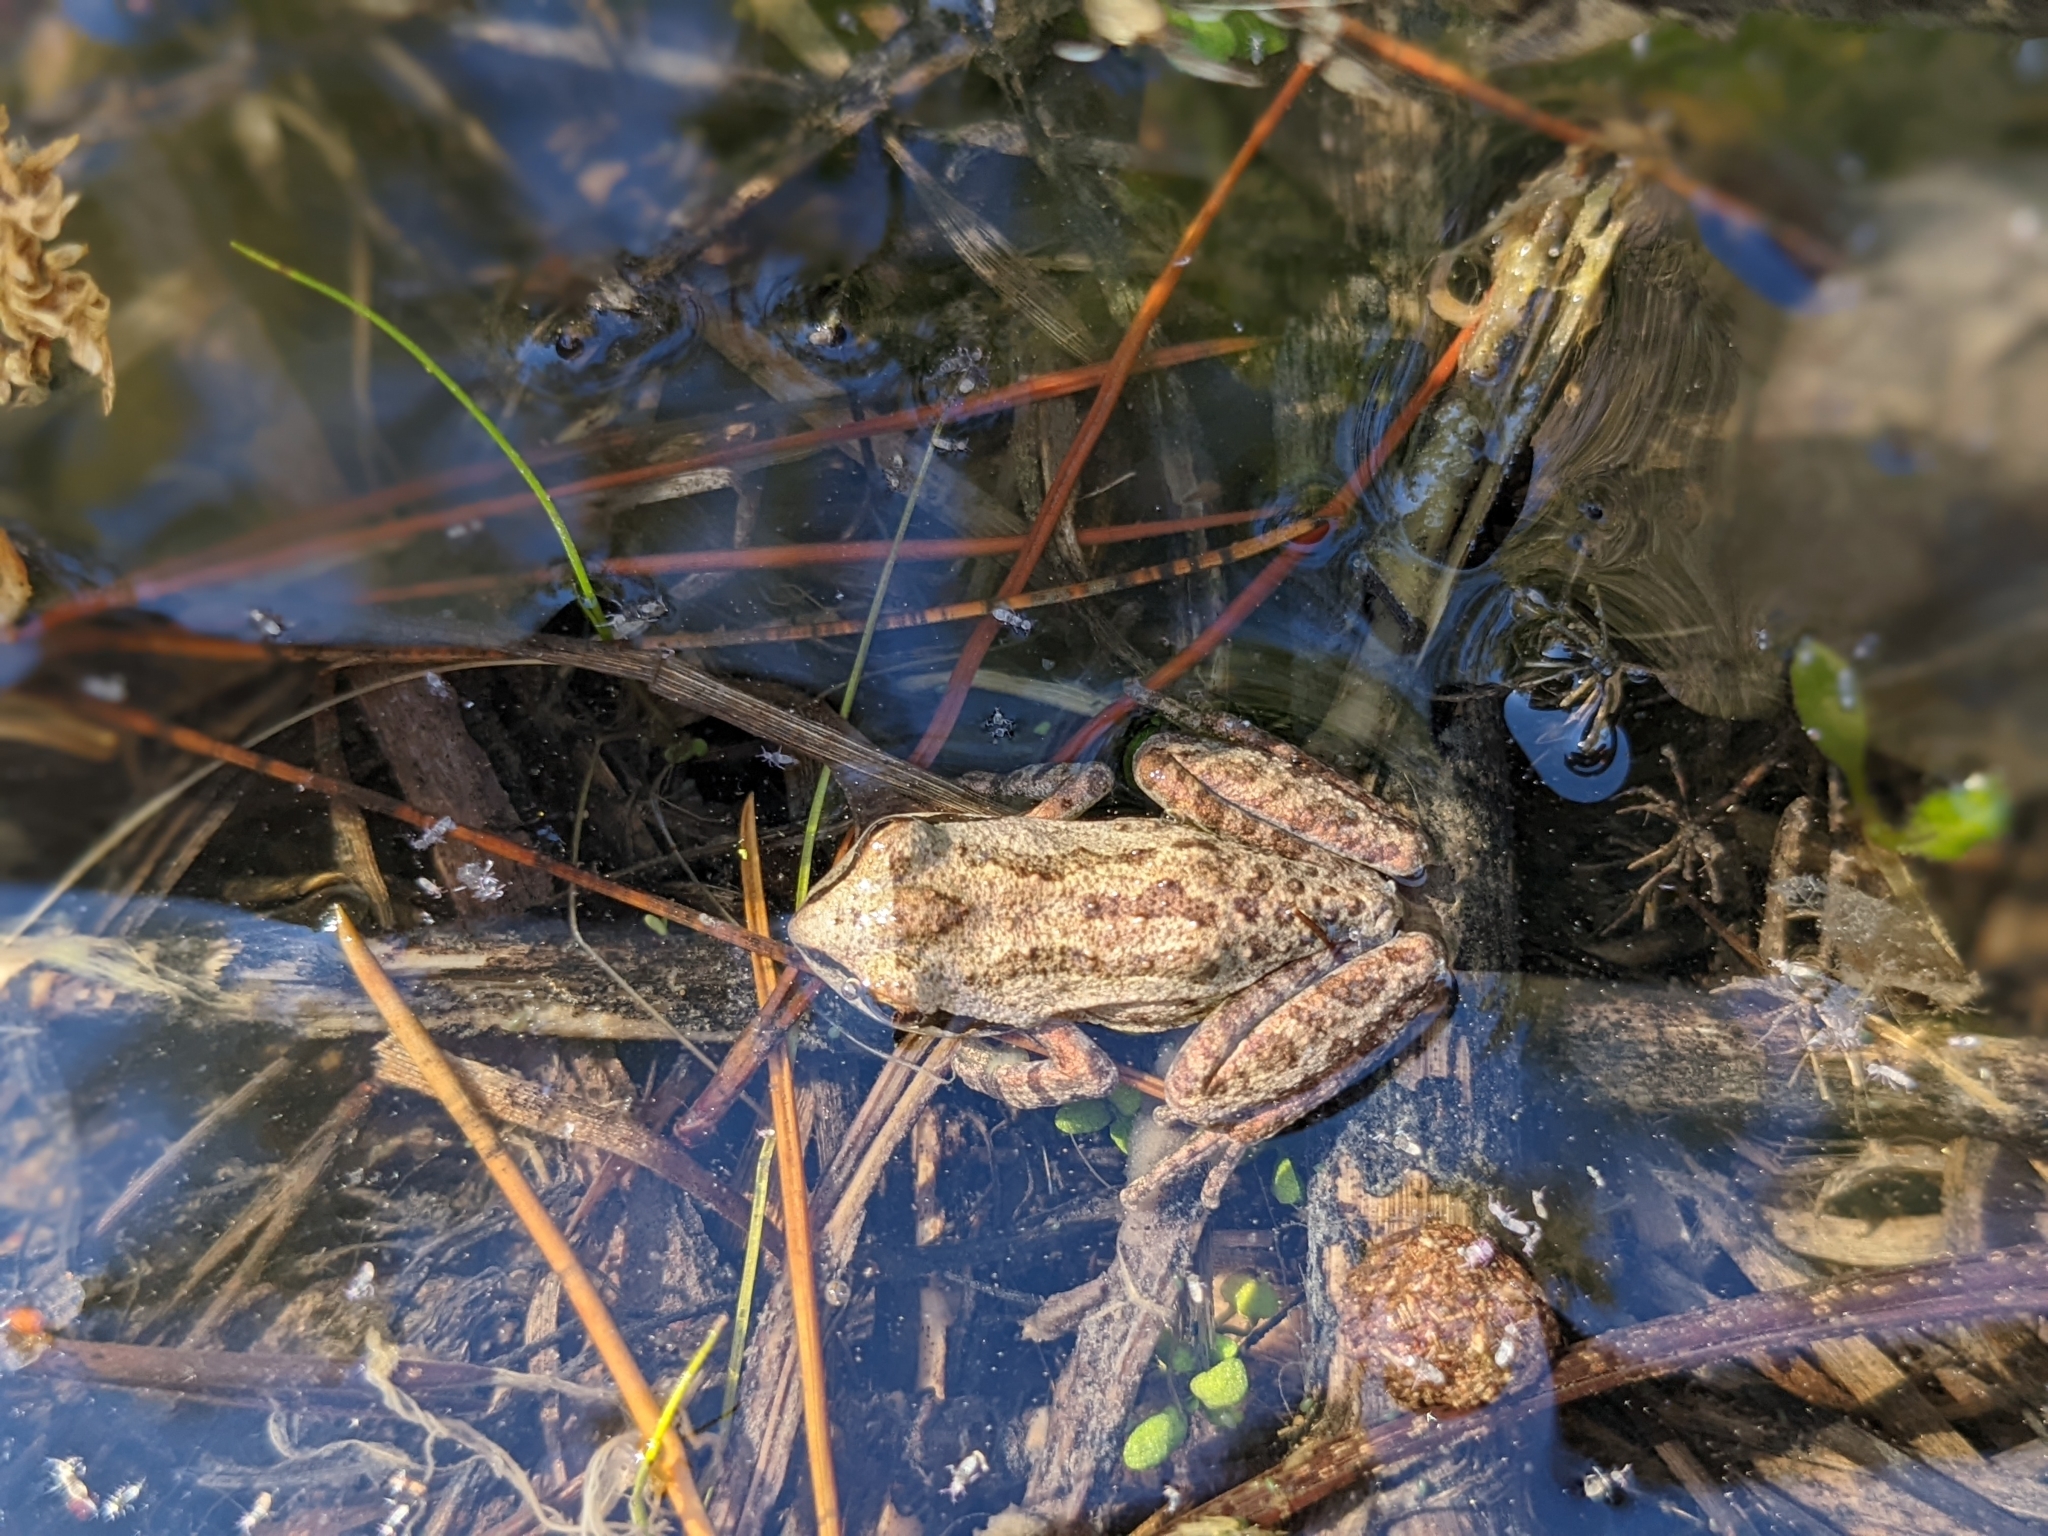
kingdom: Animalia
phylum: Chordata
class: Amphibia
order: Anura
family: Hylidae
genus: Pseudacris
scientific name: Pseudacris regilla
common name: Pacific chorus frog
